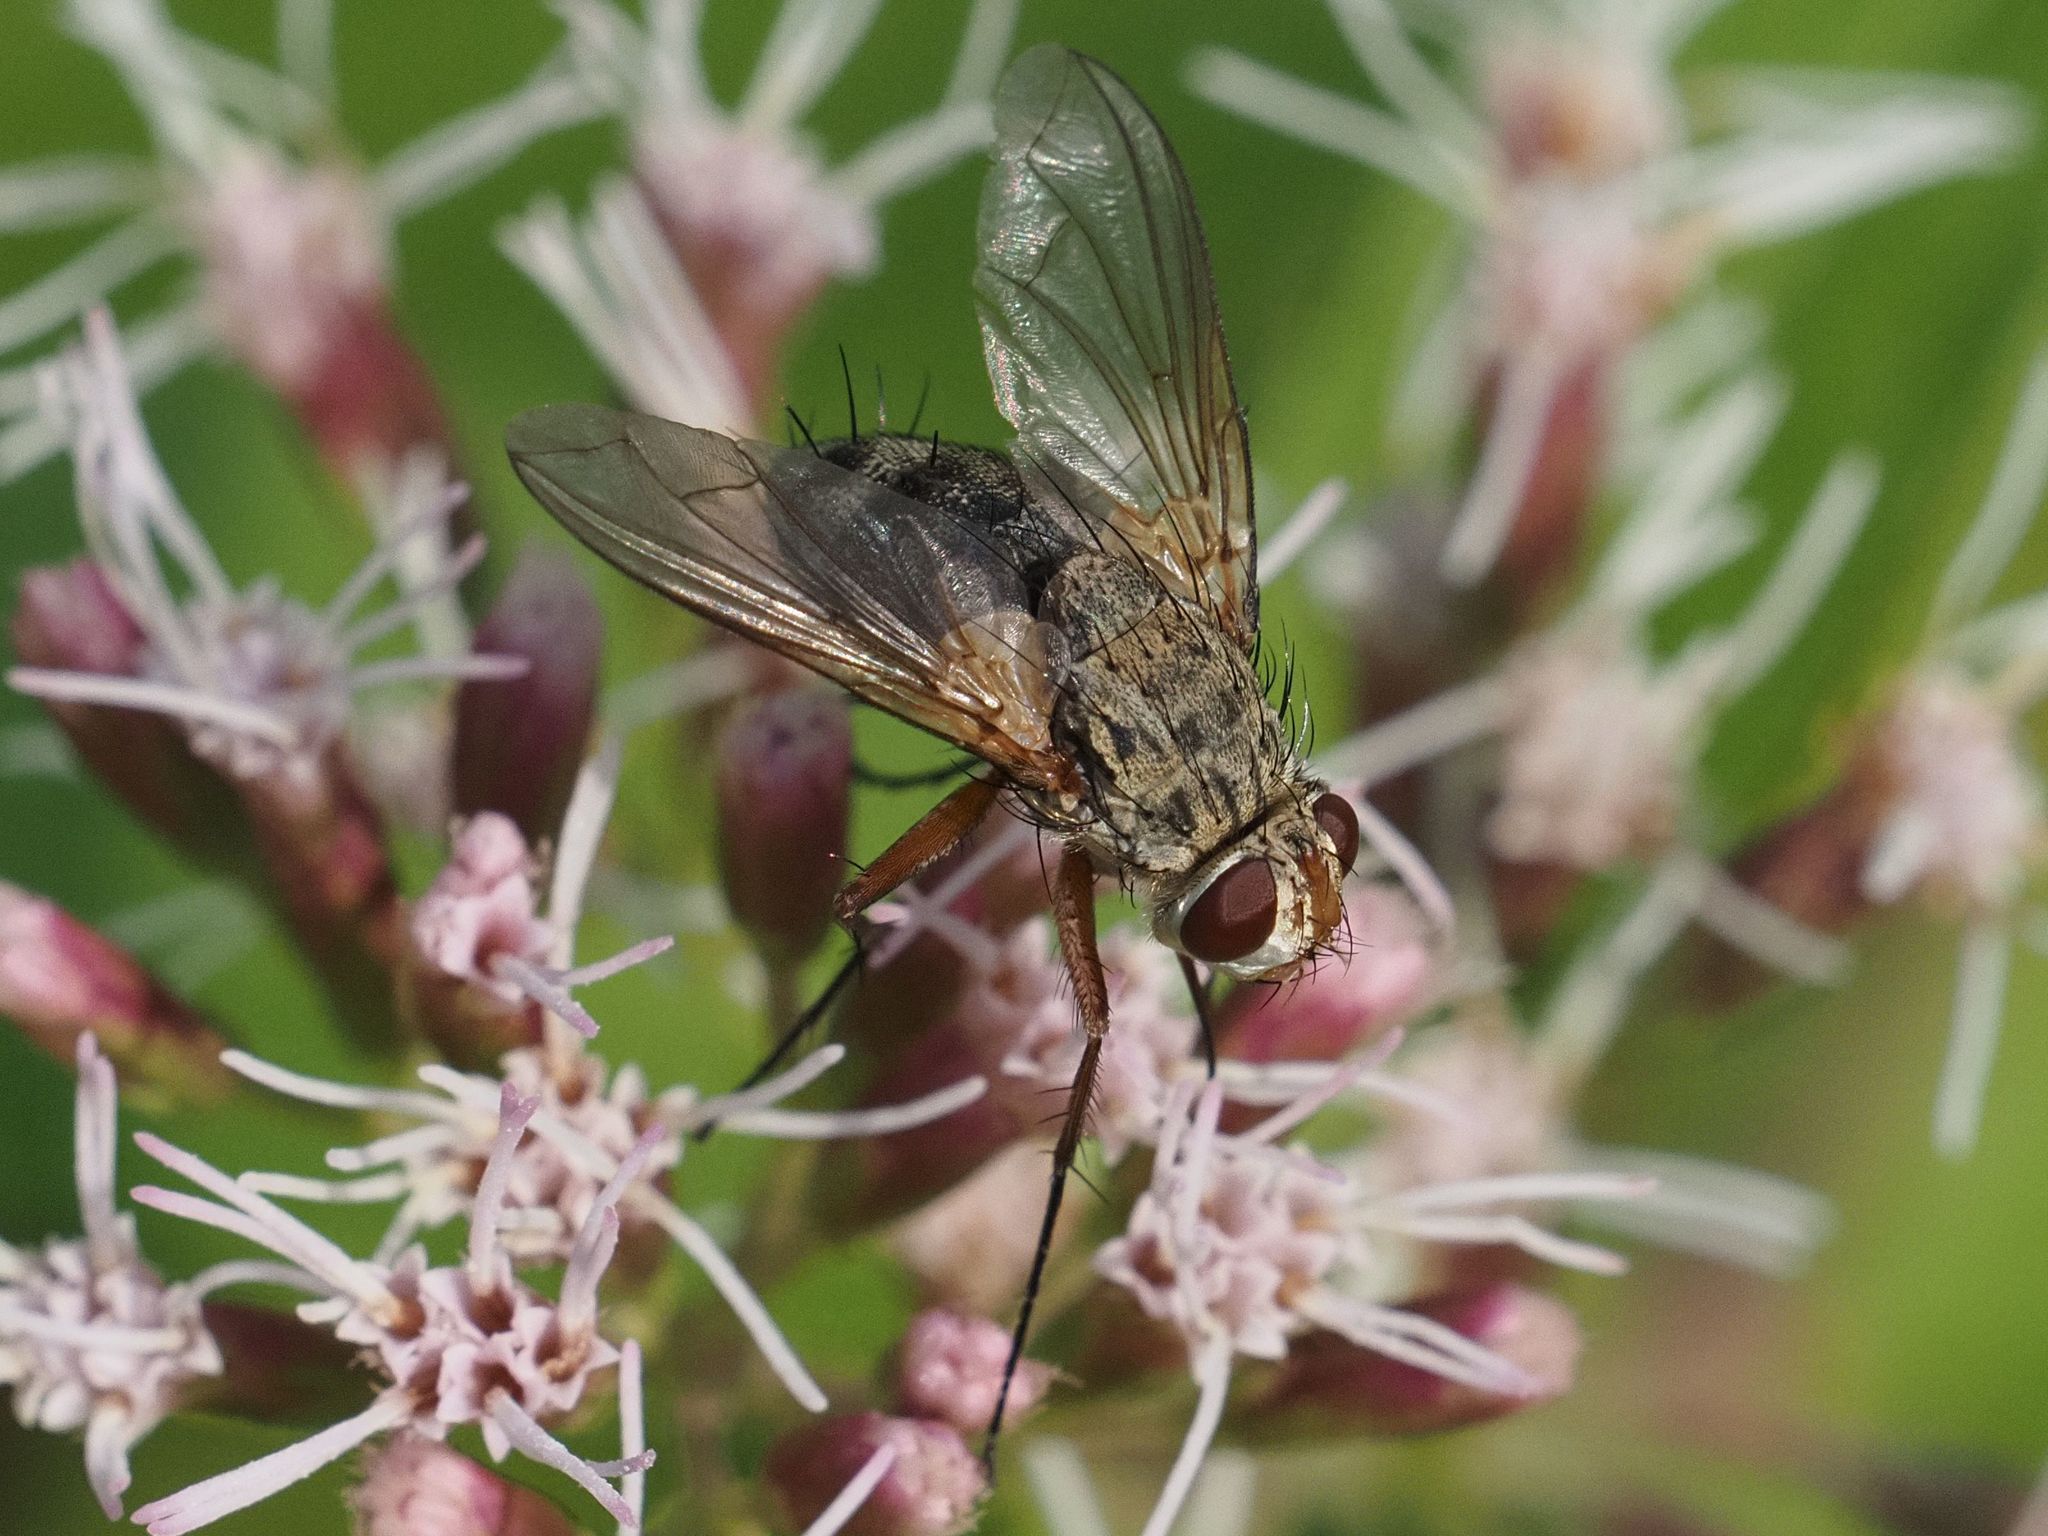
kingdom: Animalia
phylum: Arthropoda
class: Insecta
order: Diptera
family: Tachinidae
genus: Prosena
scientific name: Prosena siberita
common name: Parasitic fly
